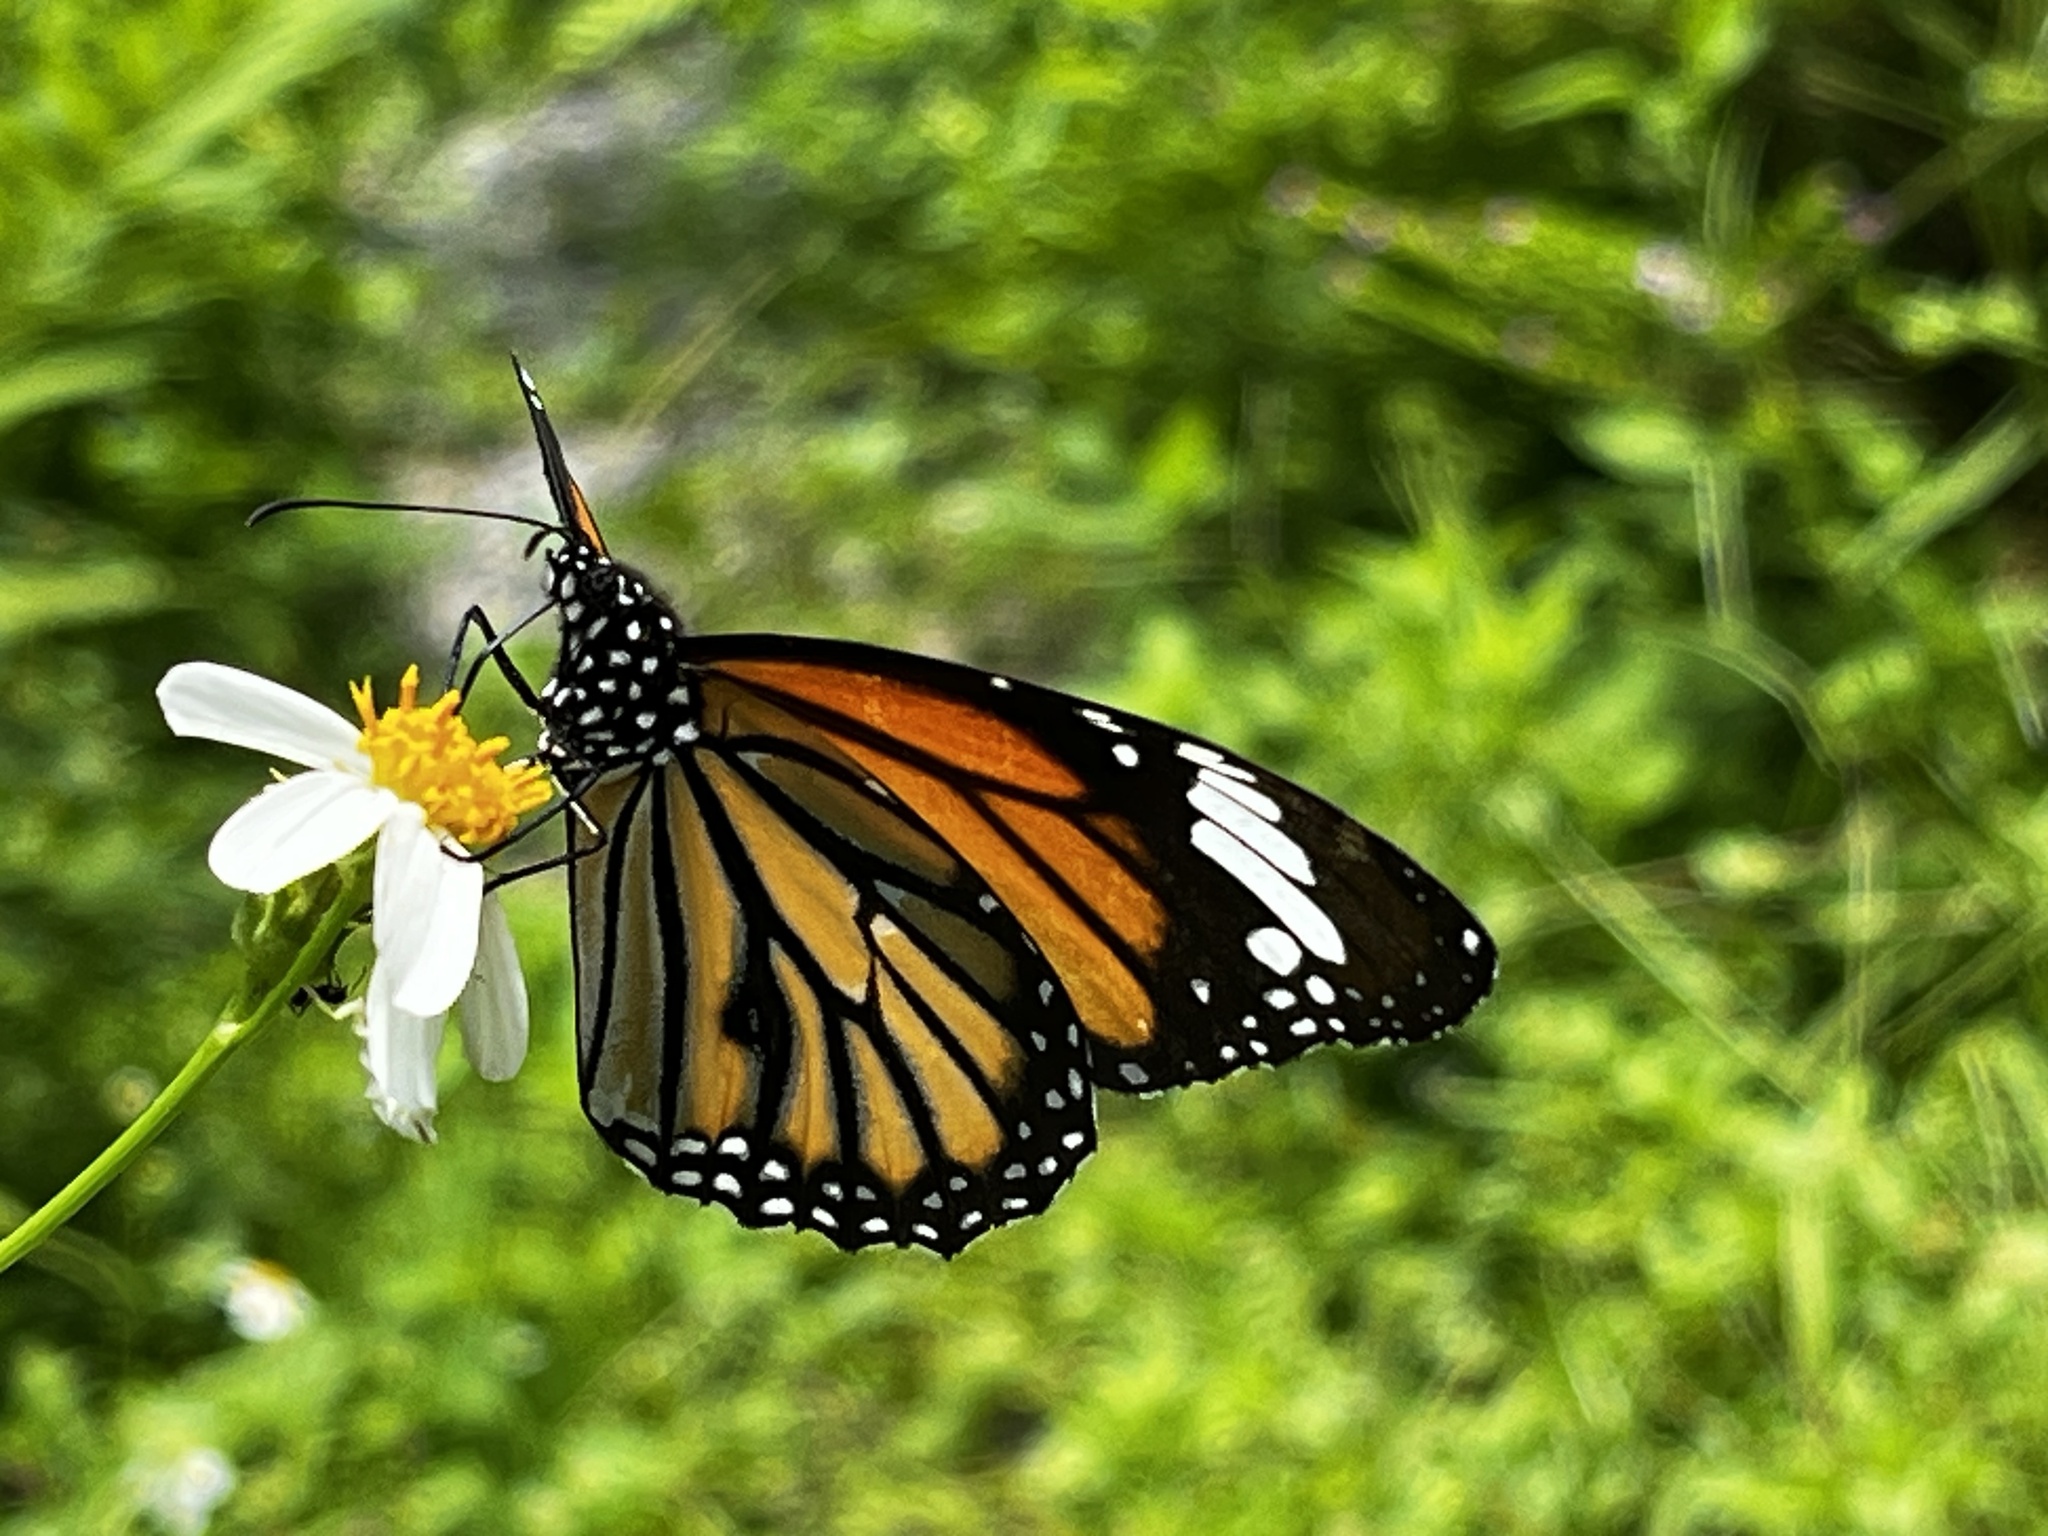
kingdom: Animalia
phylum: Arthropoda
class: Insecta
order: Lepidoptera
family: Nymphalidae
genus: Danaus
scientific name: Danaus genutia
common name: Common tiger butterfly
